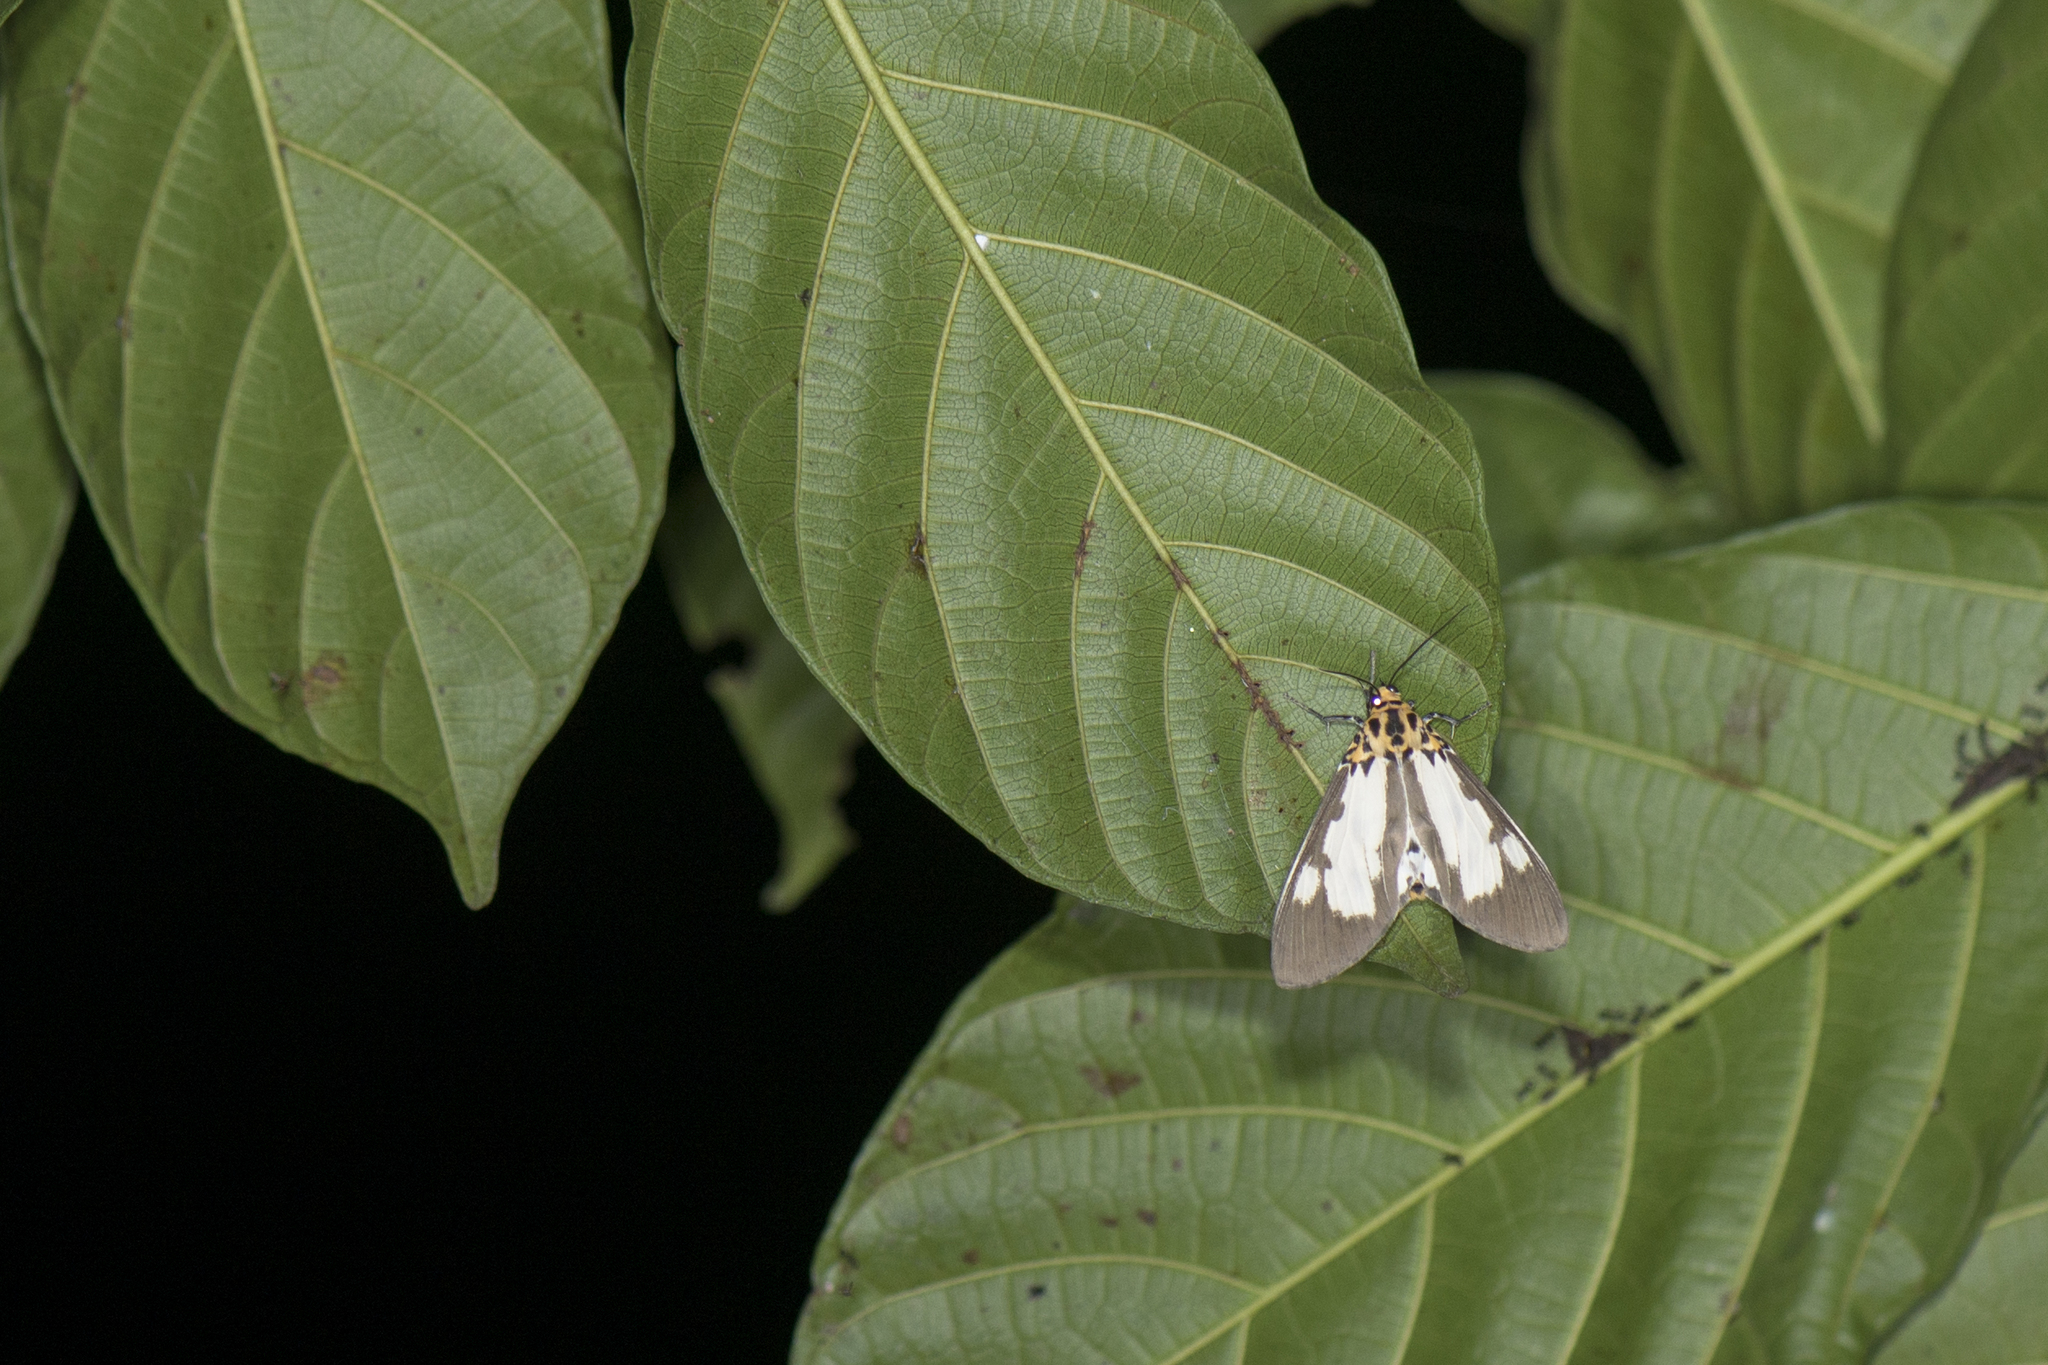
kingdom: Animalia
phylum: Arthropoda
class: Insecta
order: Lepidoptera
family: Erebidae
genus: Asota
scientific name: Asota plana
